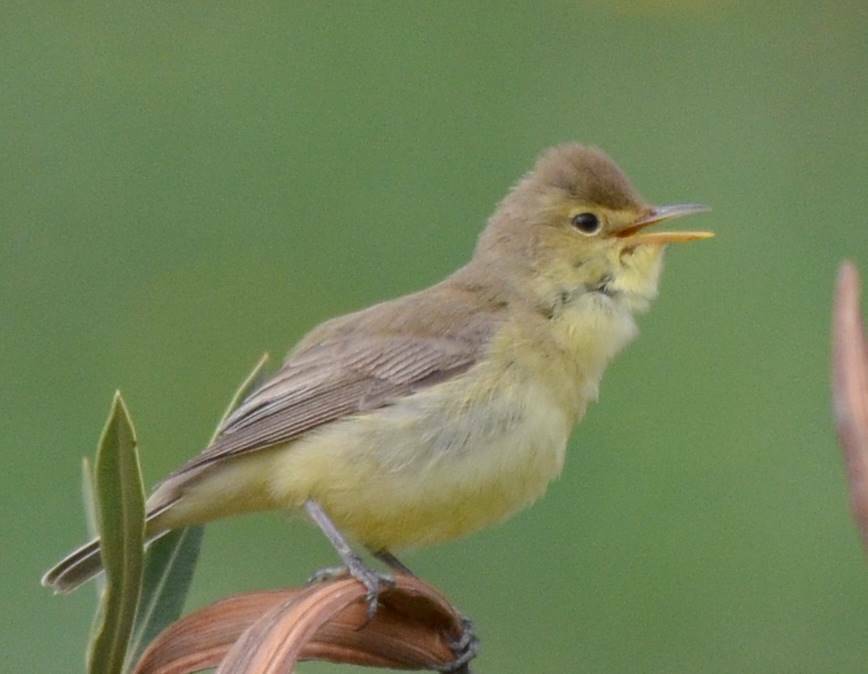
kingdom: Animalia
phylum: Chordata
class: Aves
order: Passeriformes
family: Acrocephalidae
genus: Hippolais
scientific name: Hippolais polyglotta
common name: Melodious warbler
